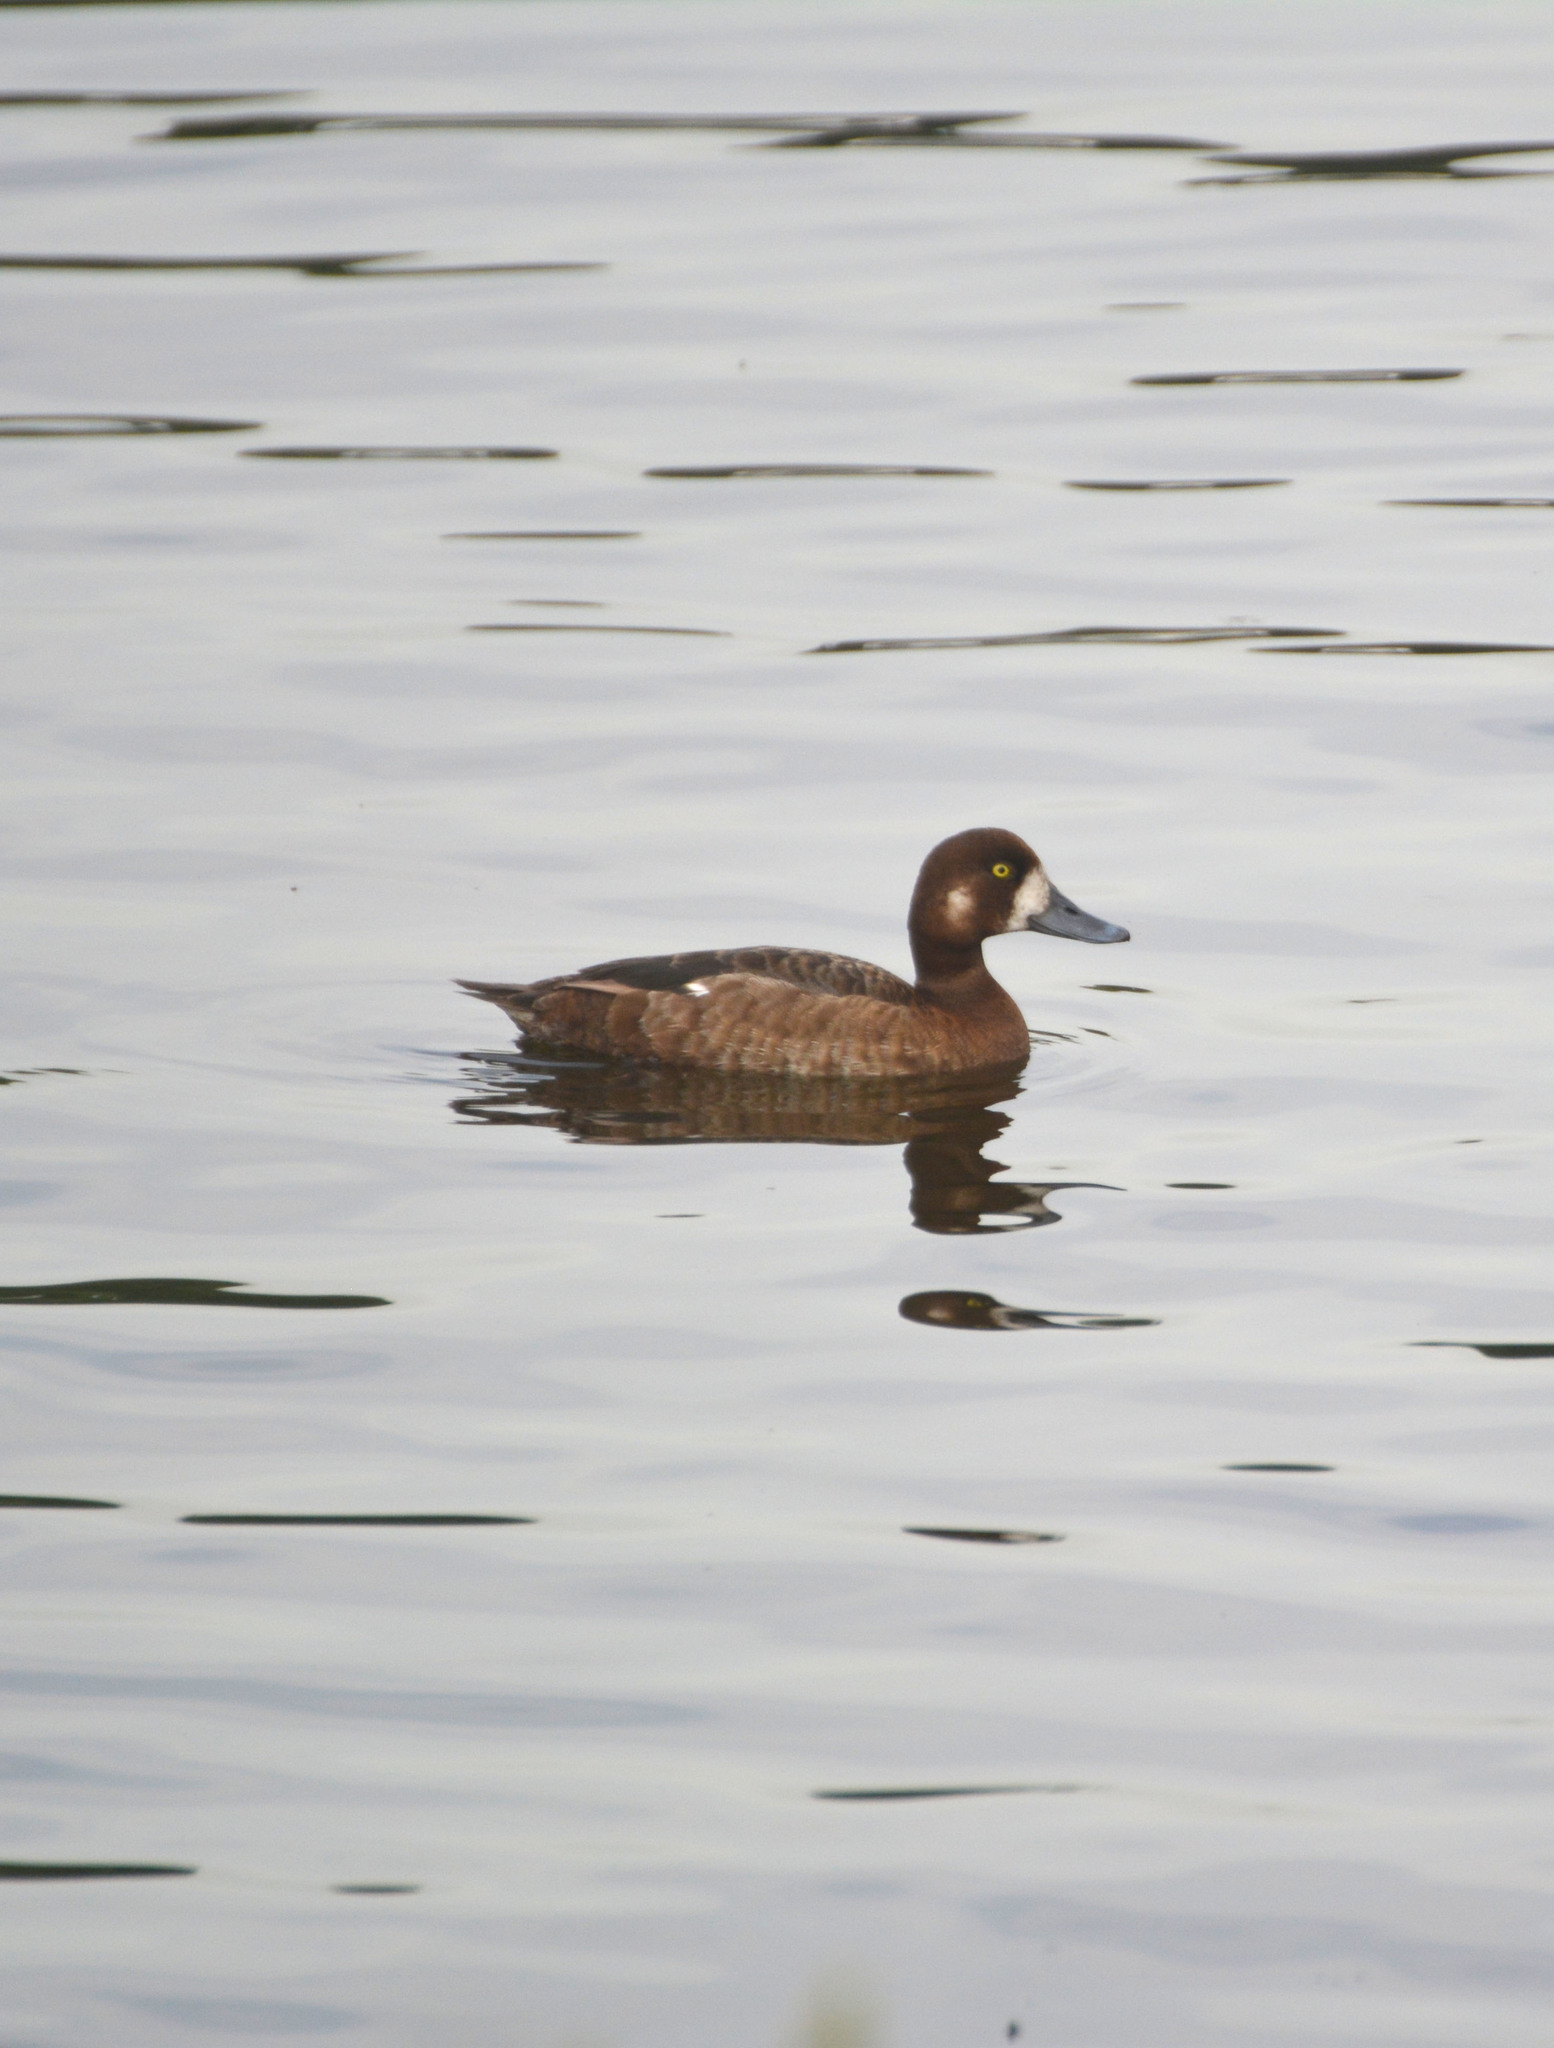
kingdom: Animalia
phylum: Chordata
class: Aves
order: Anseriformes
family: Anatidae
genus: Aythya
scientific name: Aythya marila
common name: Greater scaup
